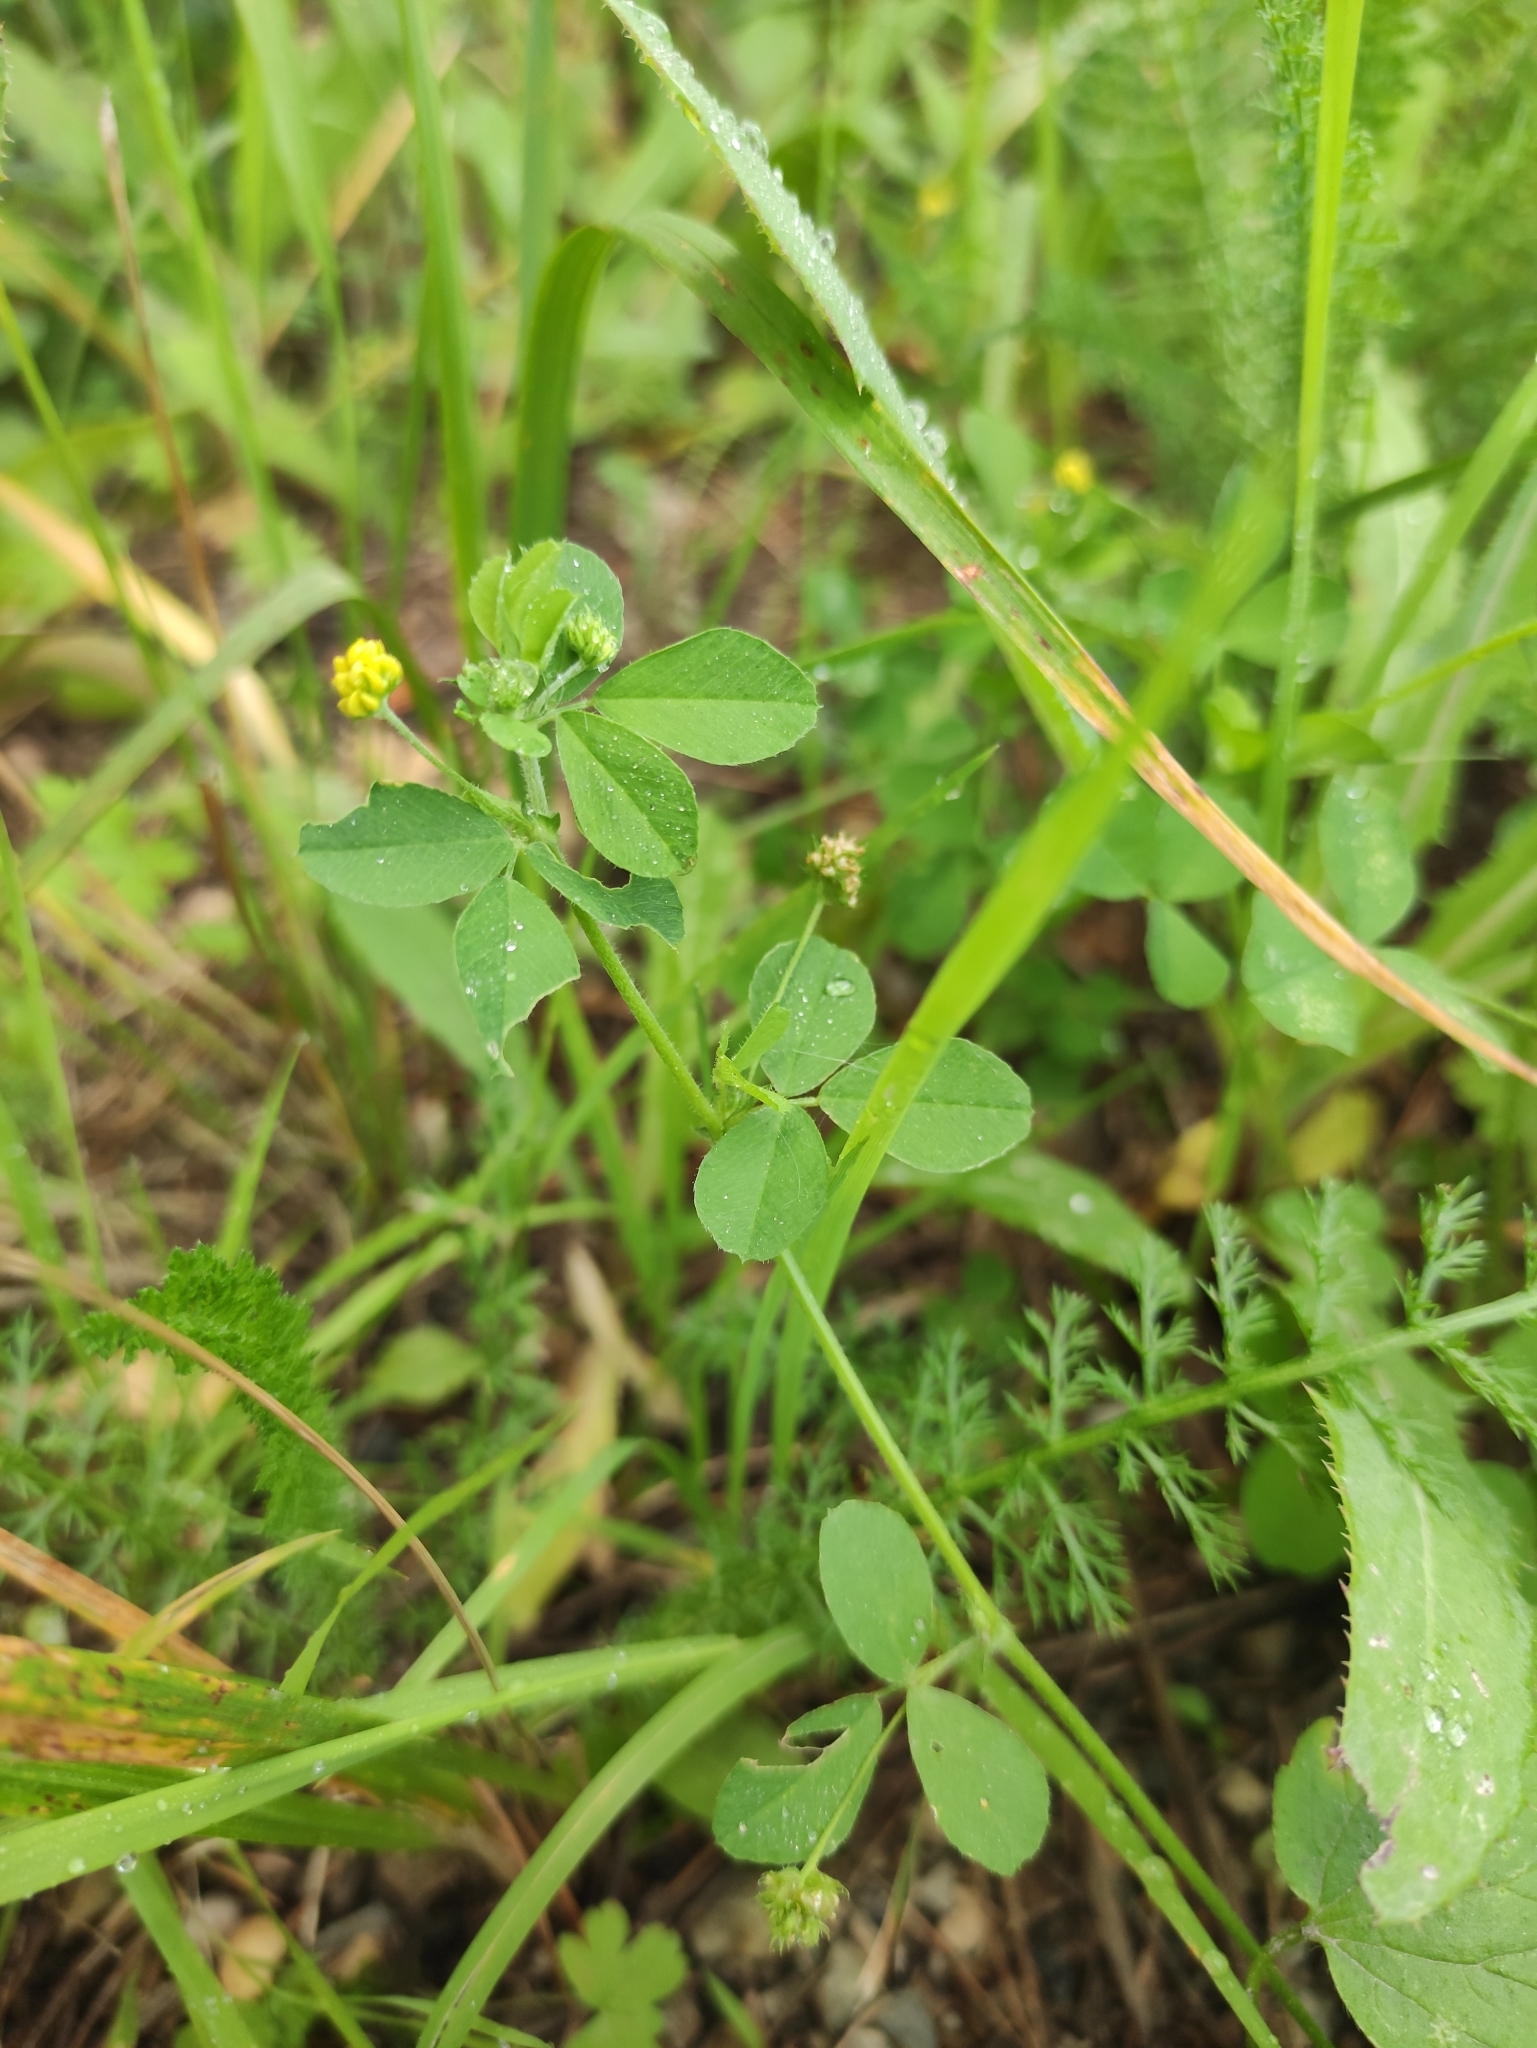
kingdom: Plantae
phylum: Tracheophyta
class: Magnoliopsida
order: Fabales
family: Fabaceae
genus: Medicago
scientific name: Medicago lupulina
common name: Black medick
